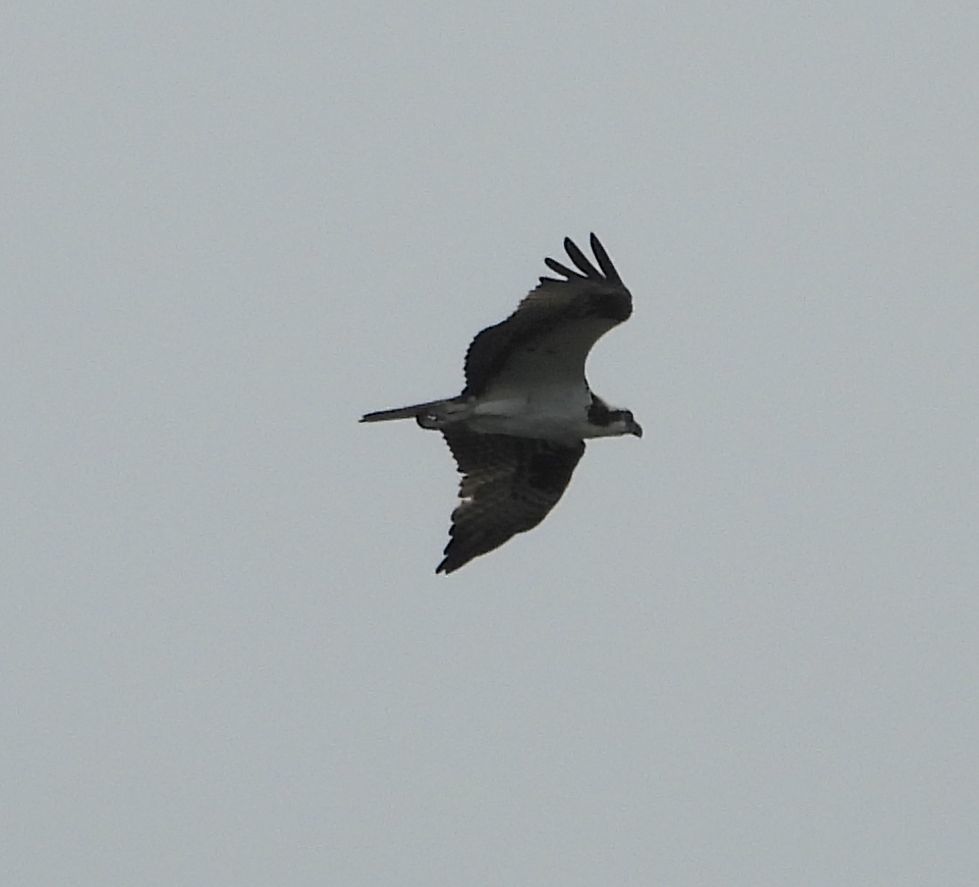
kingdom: Animalia
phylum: Chordata
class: Aves
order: Accipitriformes
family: Pandionidae
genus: Pandion
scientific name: Pandion haliaetus
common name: Osprey
